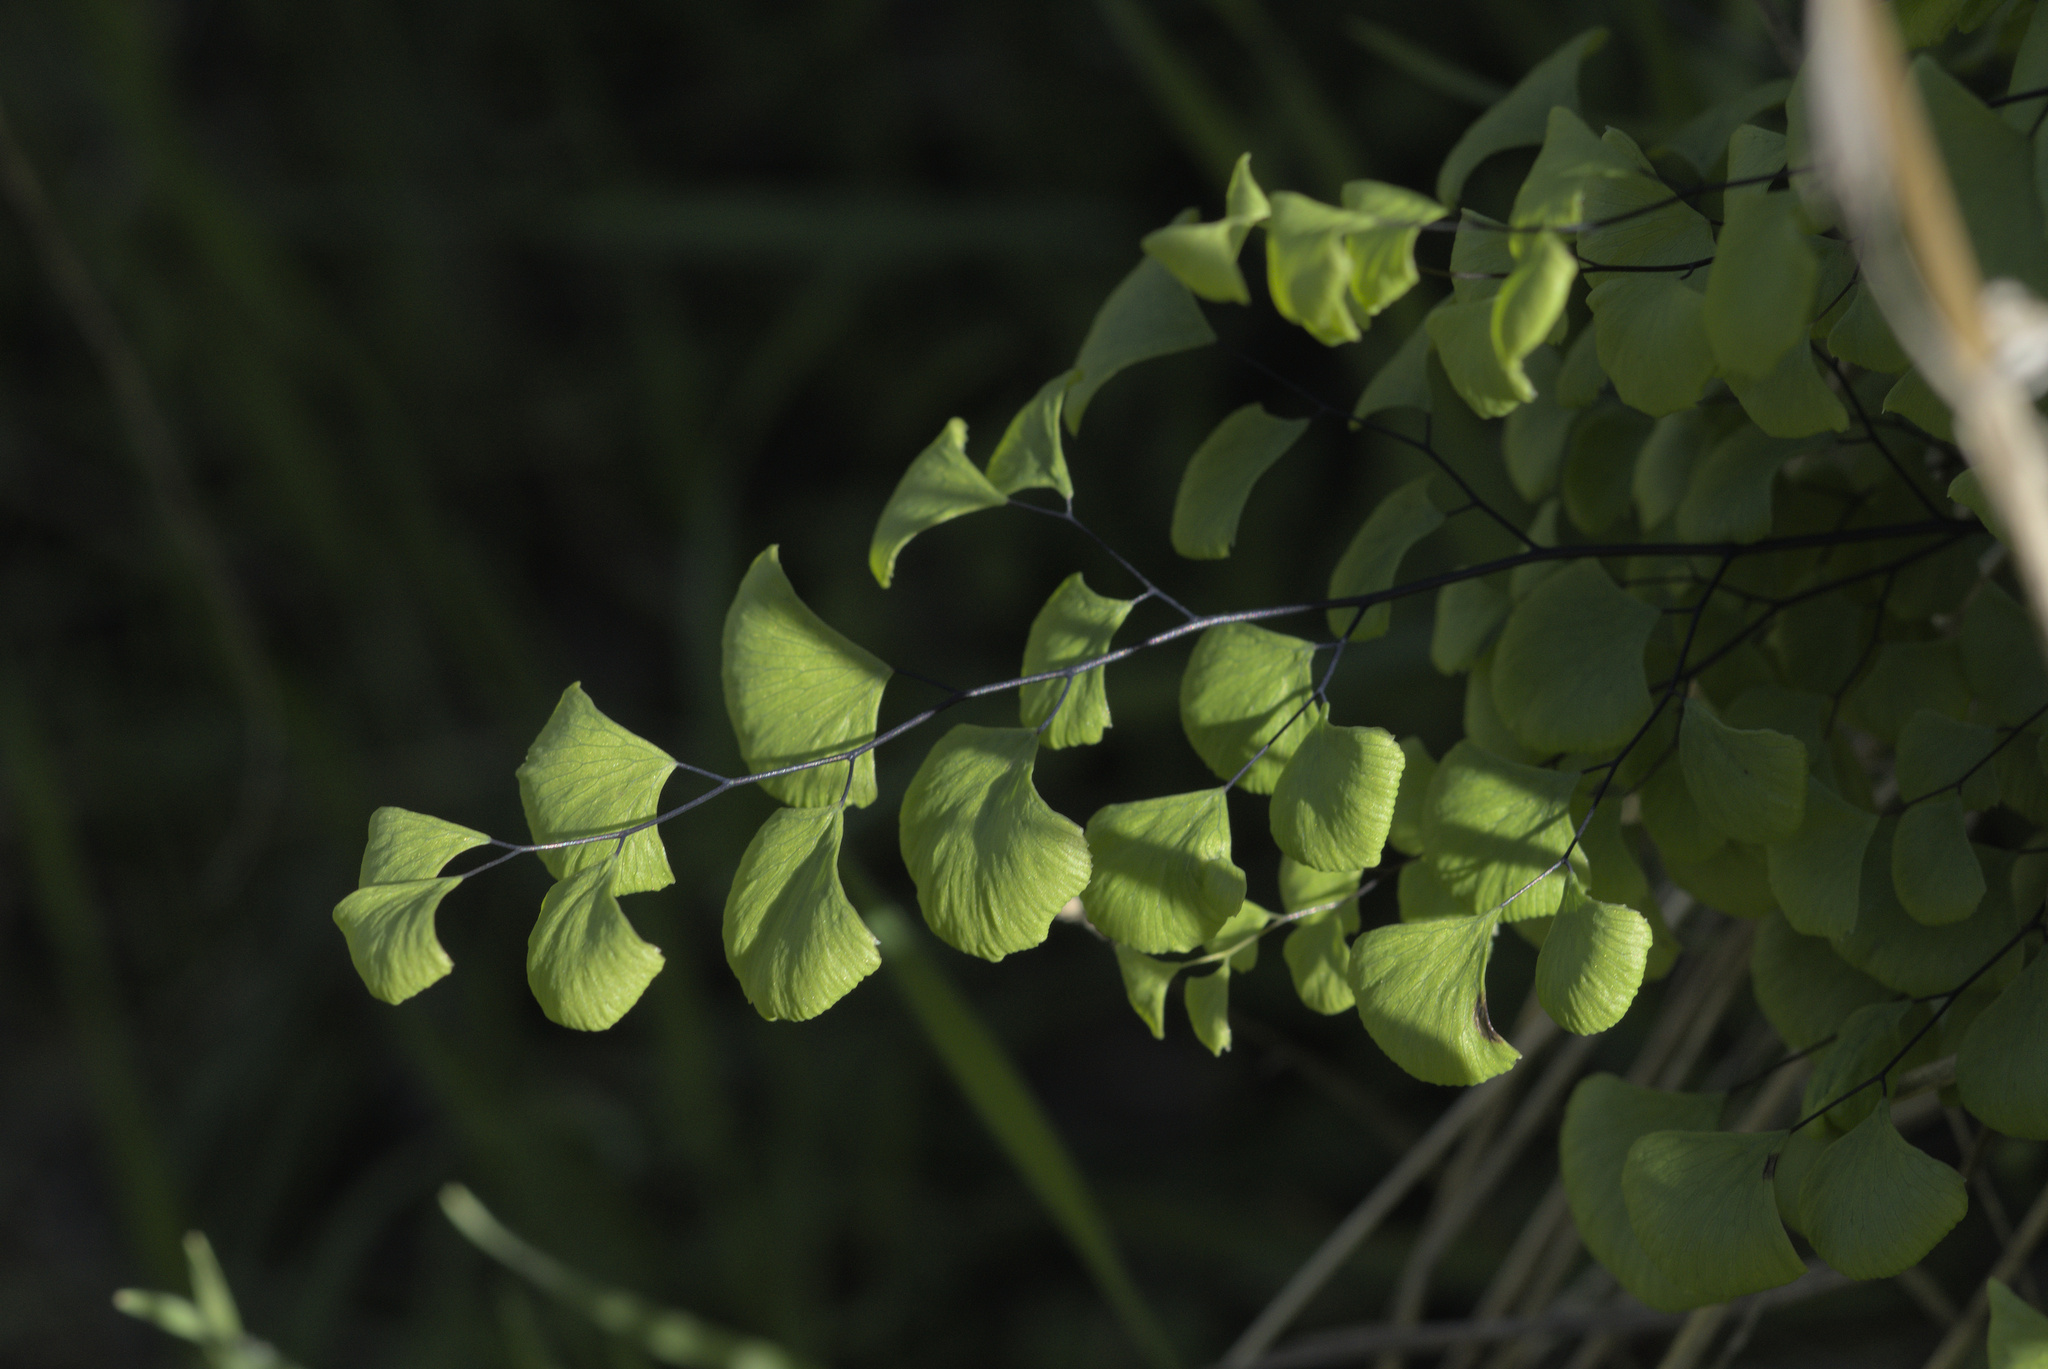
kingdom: Plantae
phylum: Tracheophyta
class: Polypodiopsida
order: Polypodiales
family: Pteridaceae
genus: Adiantum
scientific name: Adiantum jordanii
